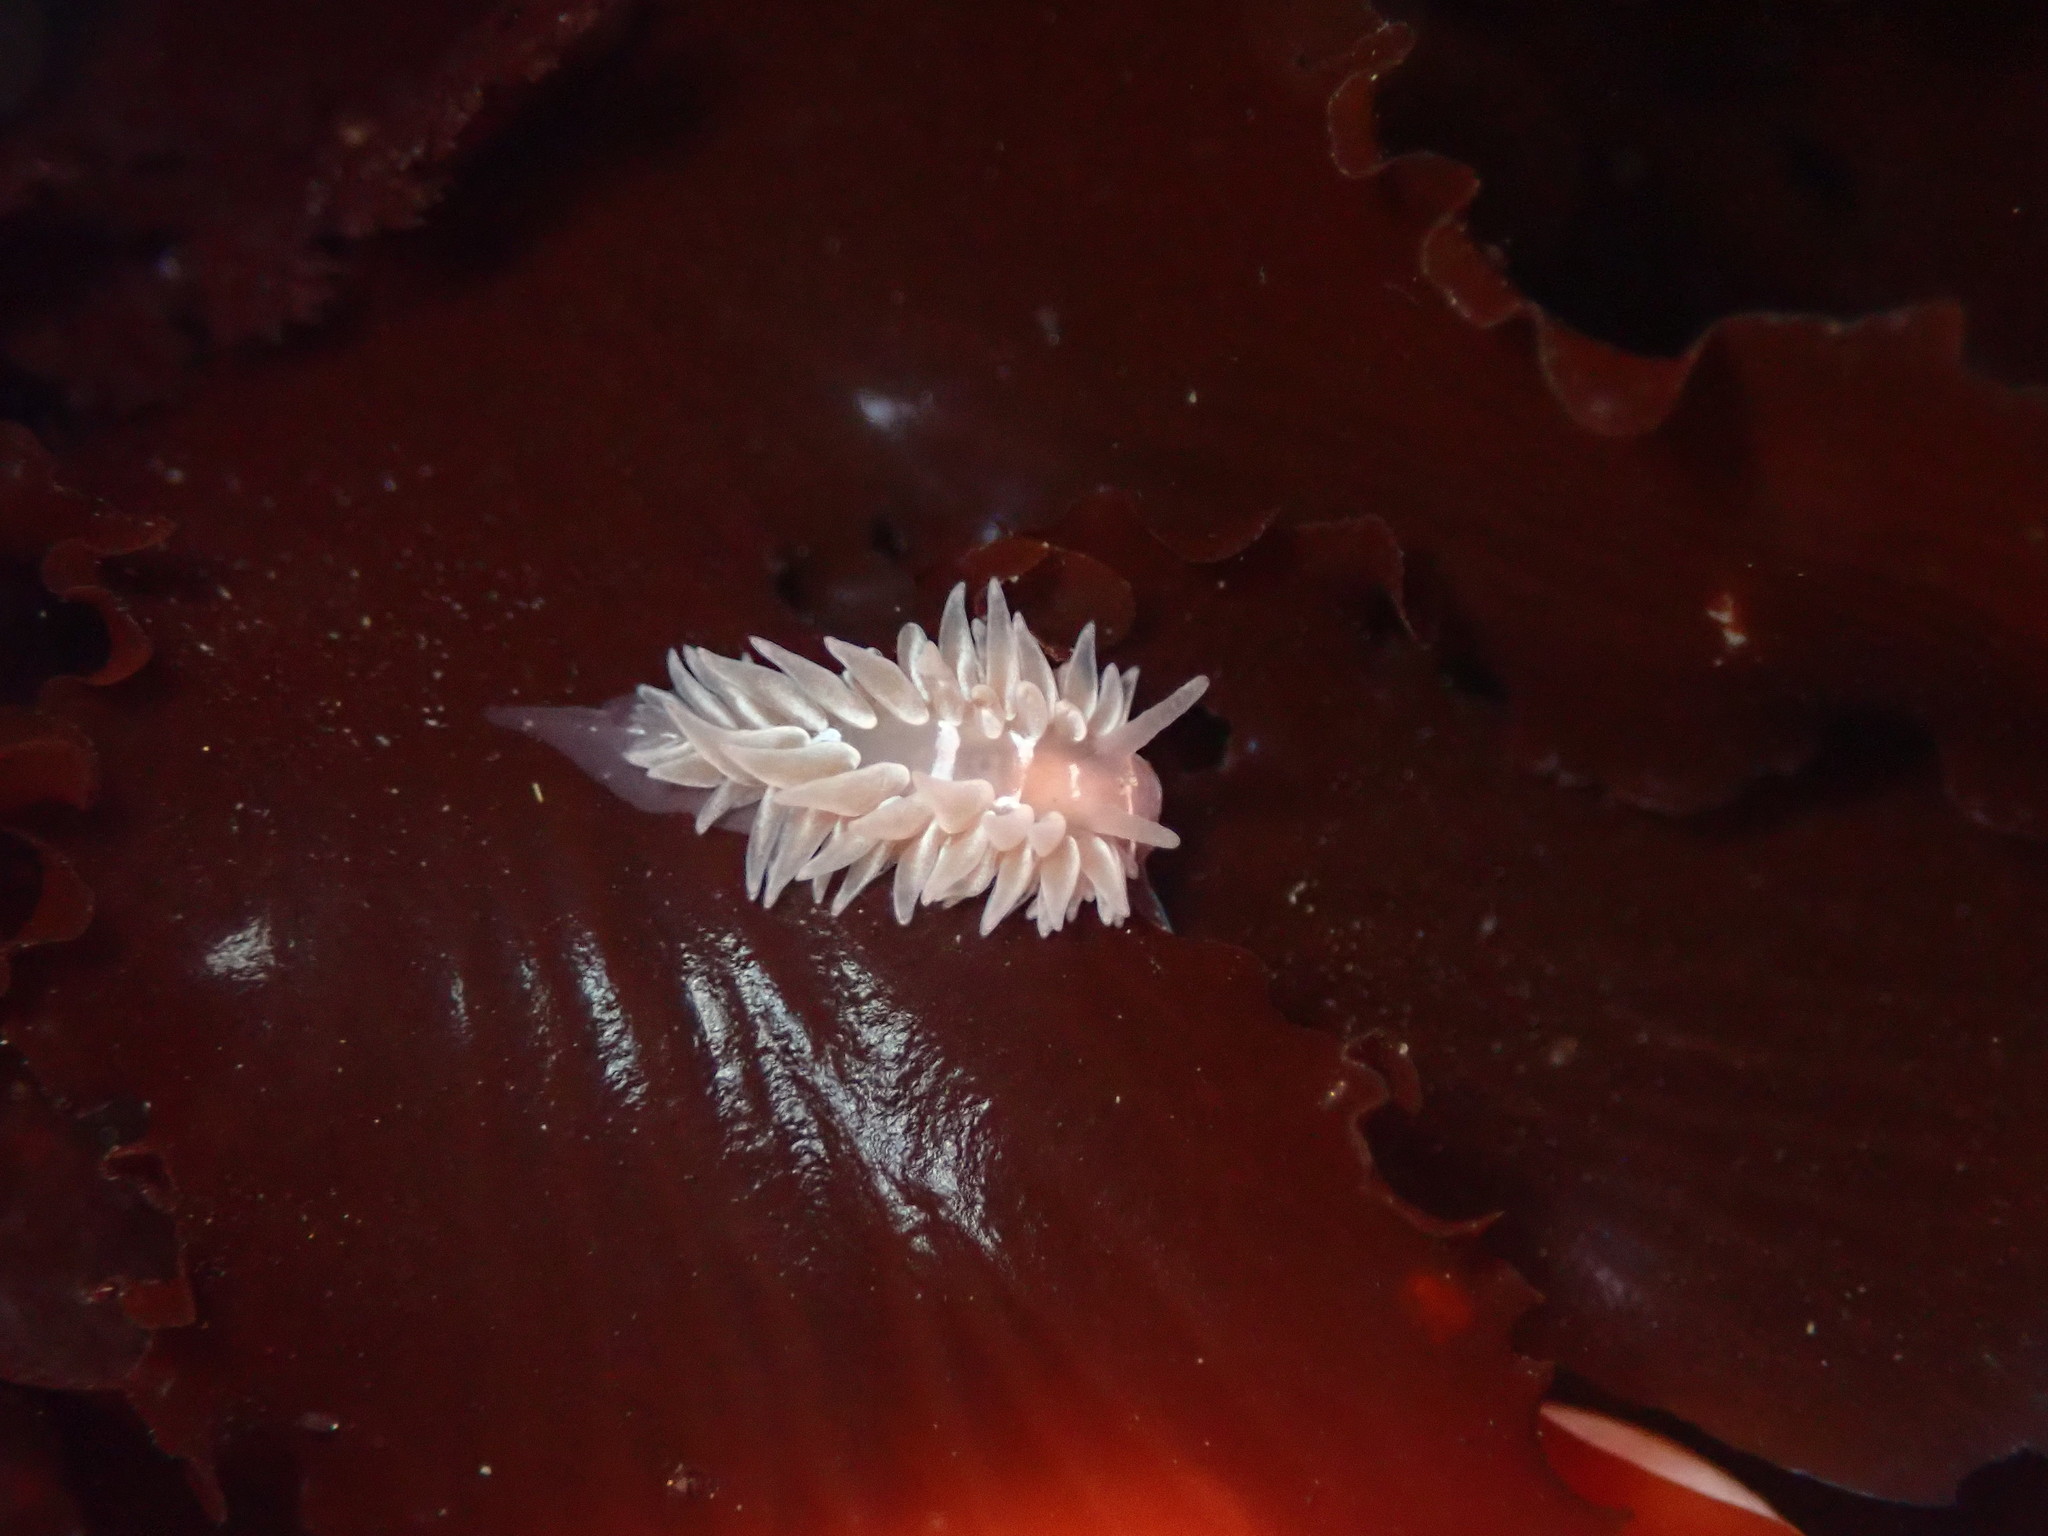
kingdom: Animalia
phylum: Mollusca
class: Gastropoda
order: Nudibranchia
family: Aeolidiidae
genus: Aeolidia
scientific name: Aeolidia loui
